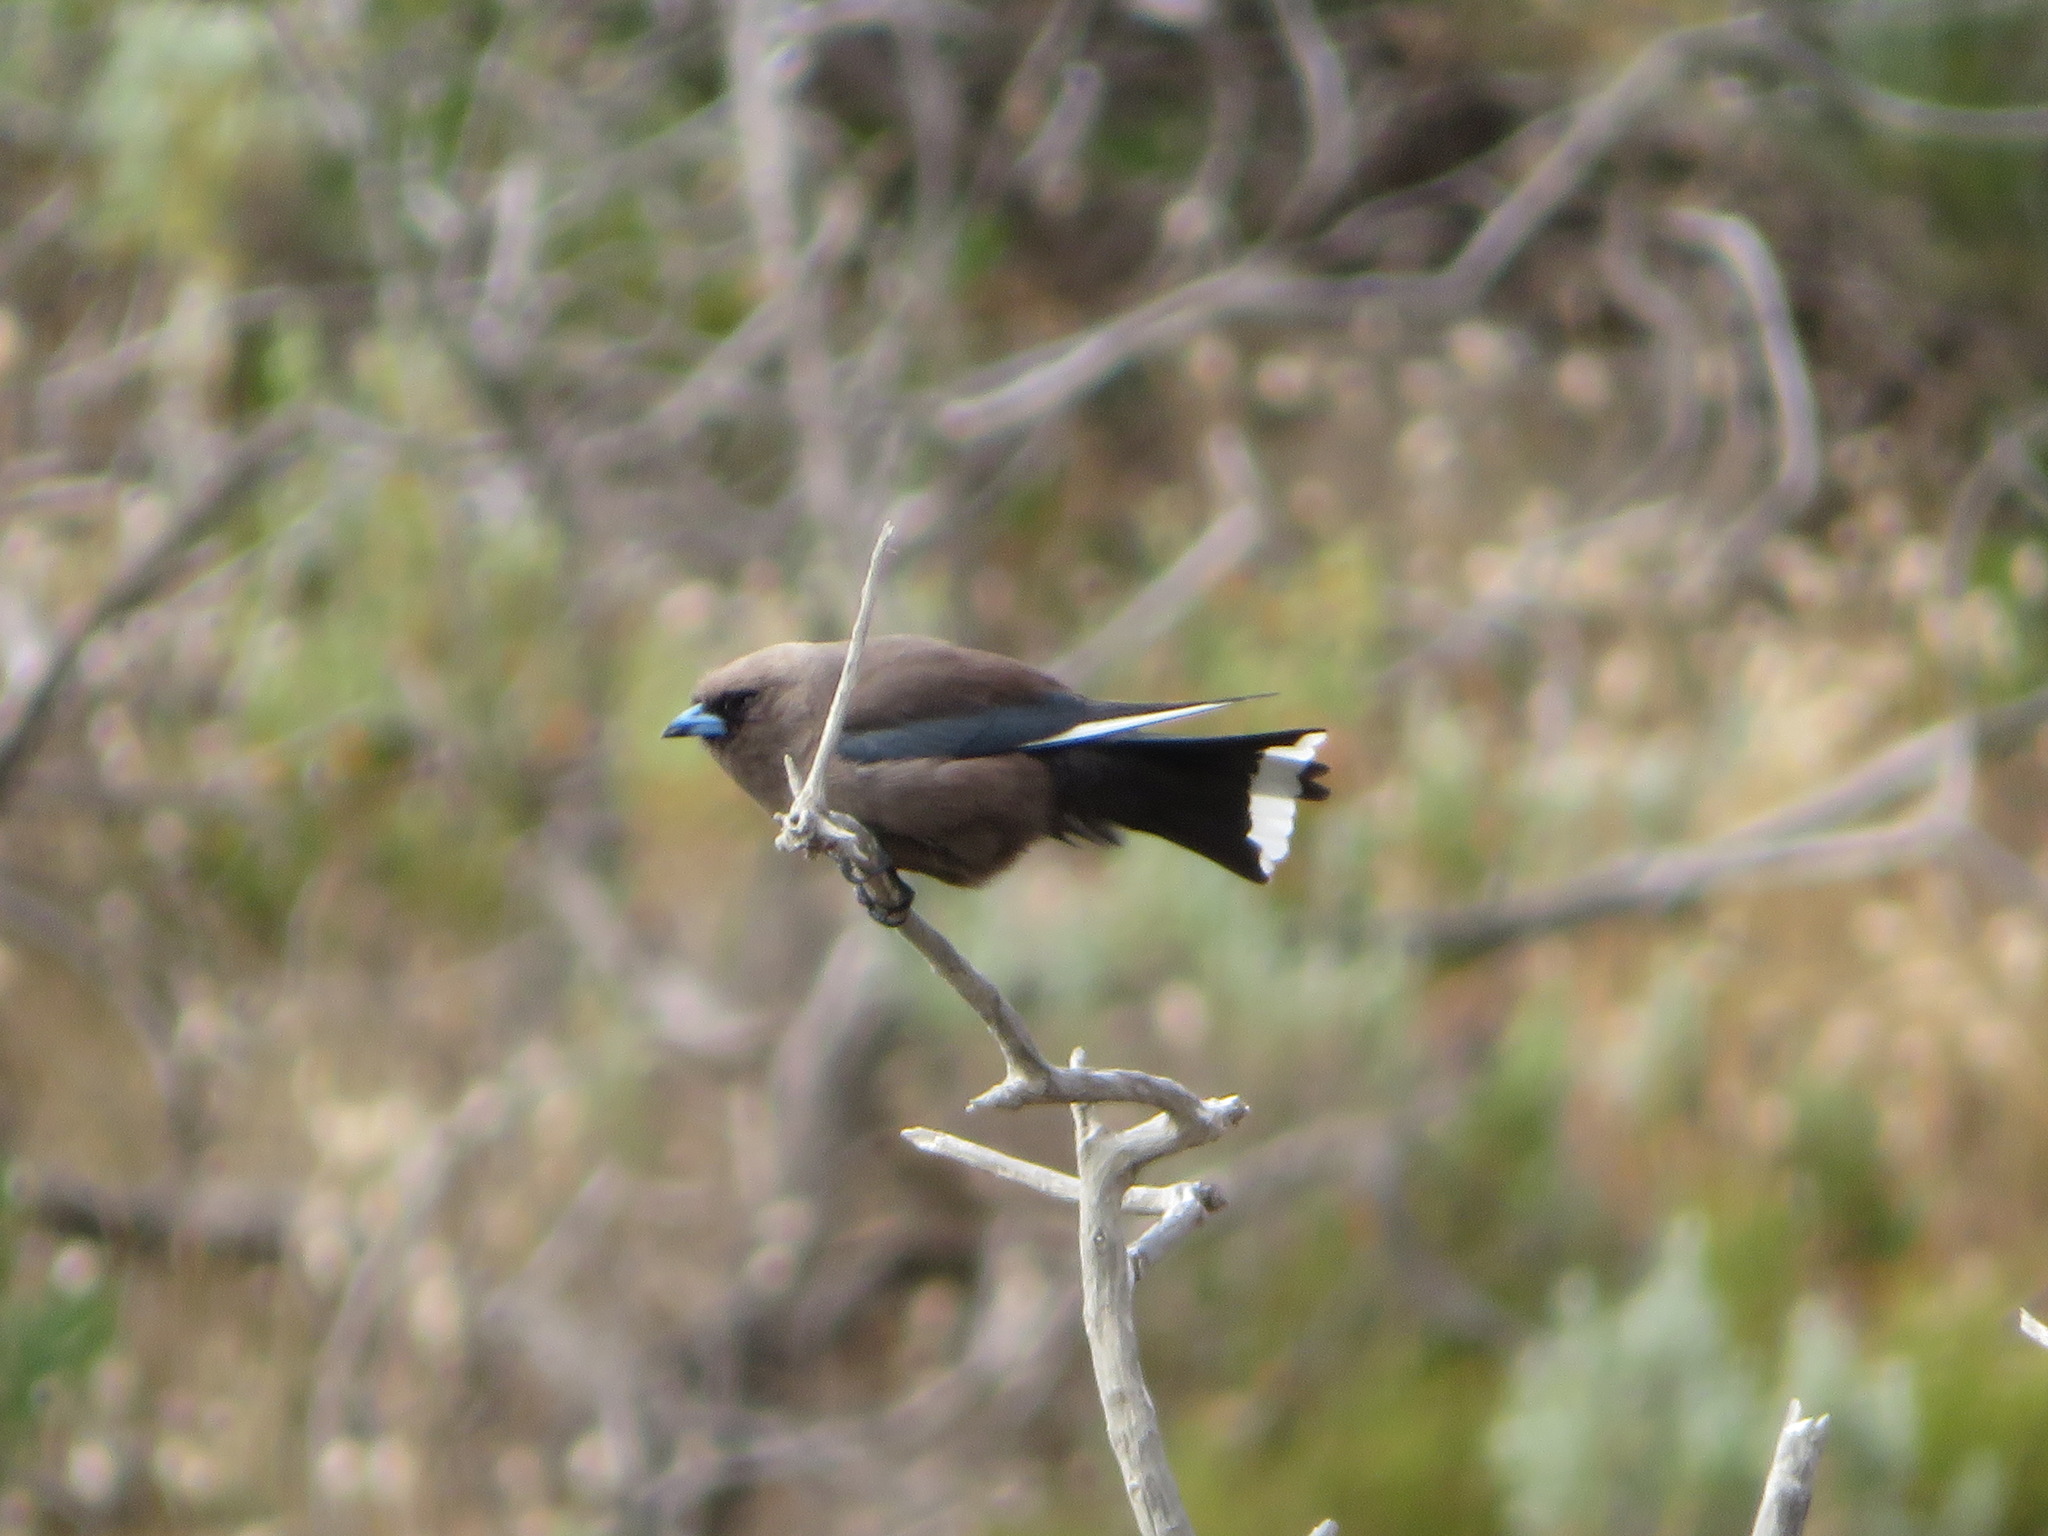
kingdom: Animalia
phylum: Chordata
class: Aves
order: Passeriformes
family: Artamidae
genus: Artamus
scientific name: Artamus cyanopterus
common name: Dusky woodswallow
